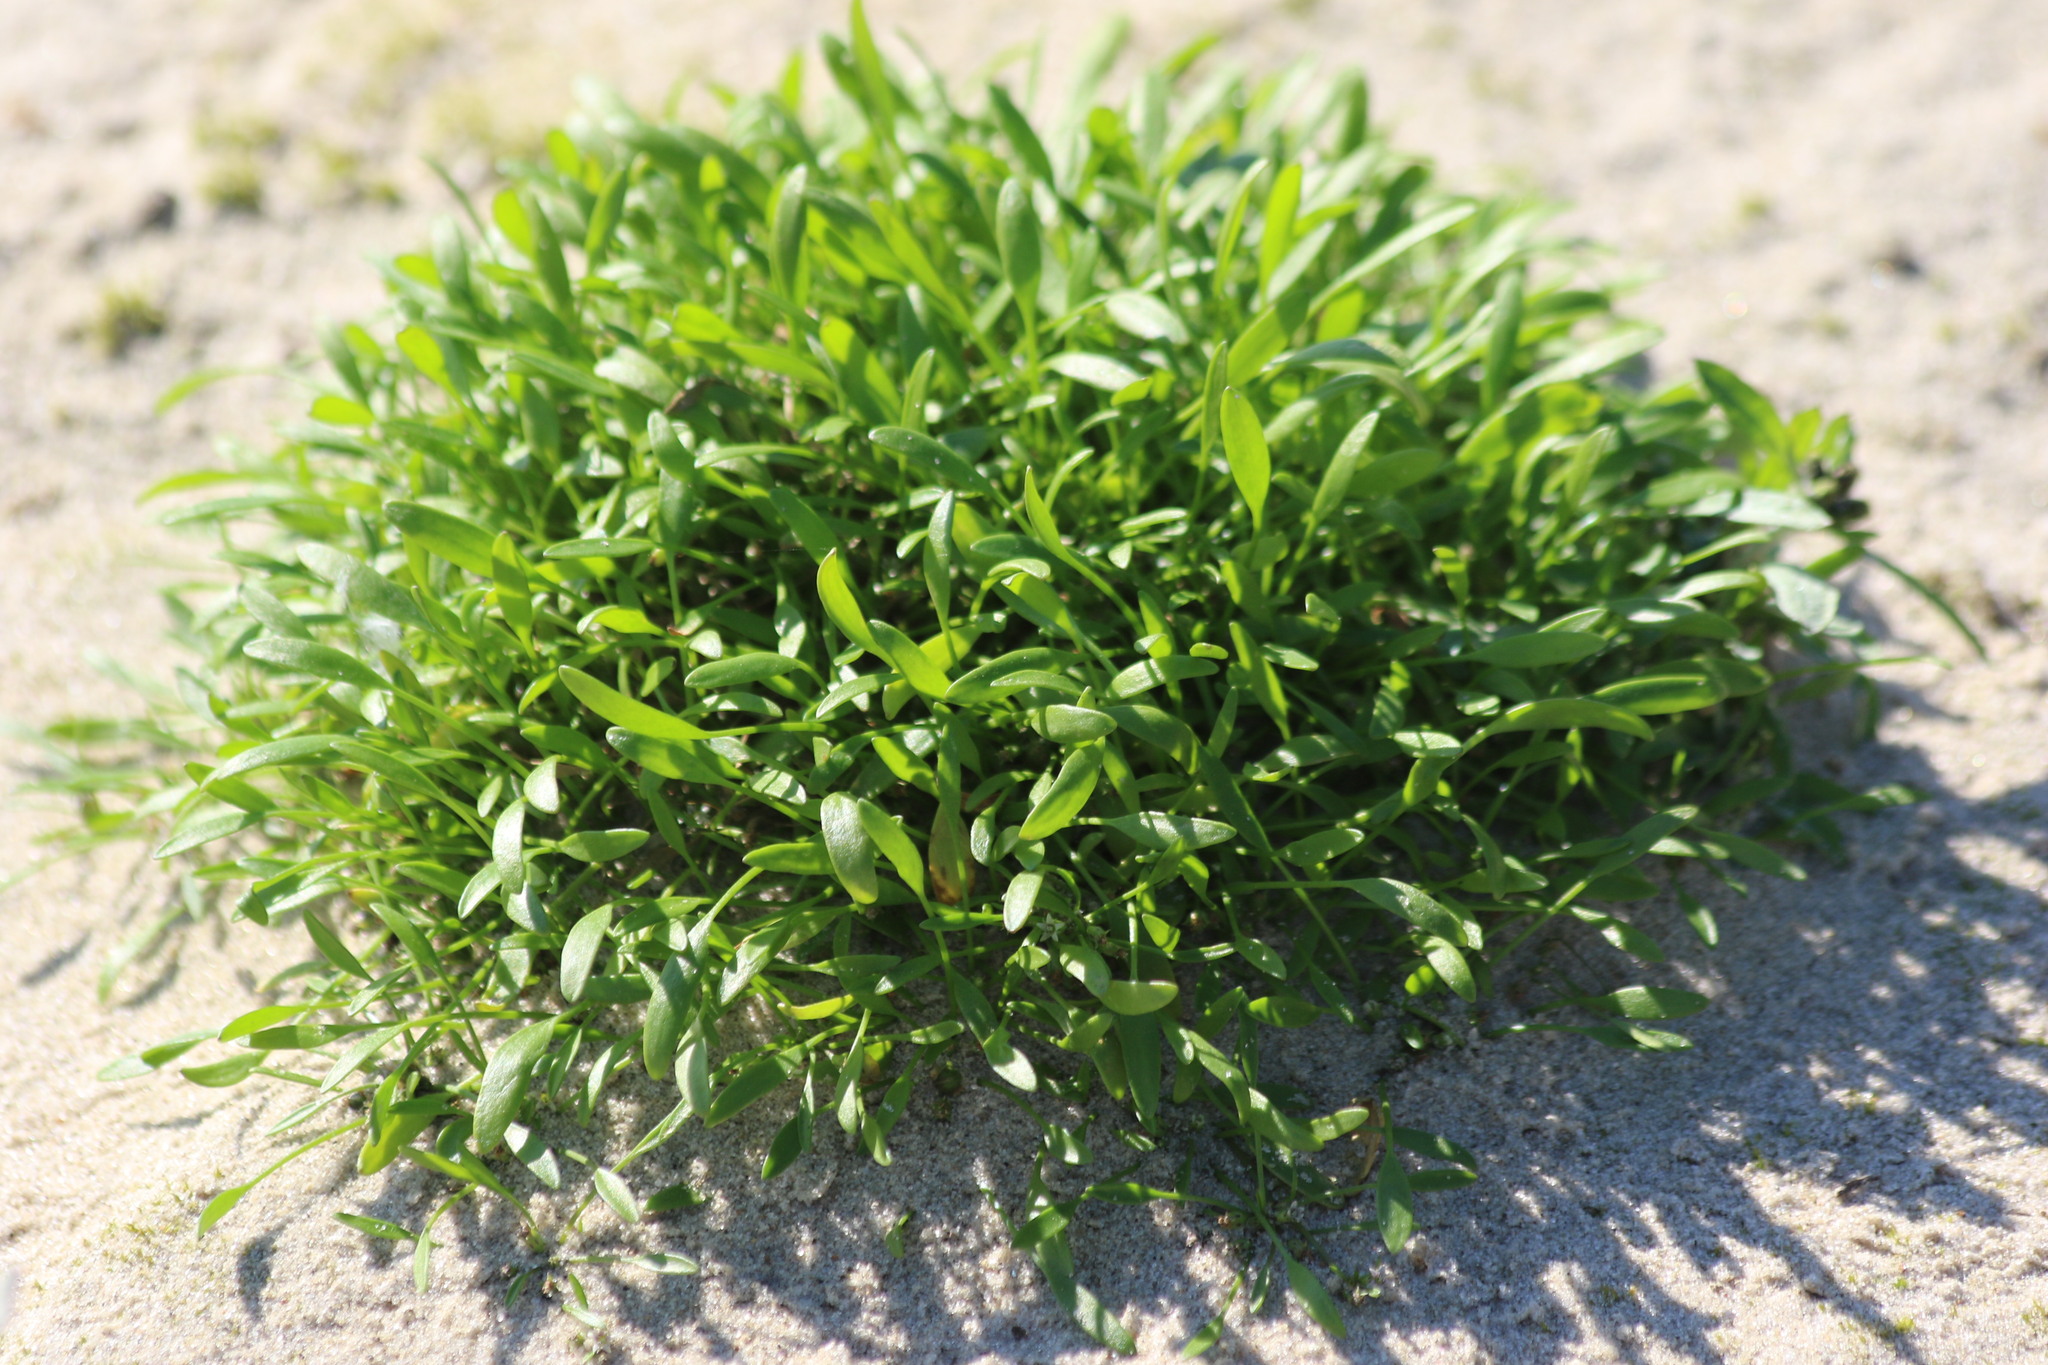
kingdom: Plantae
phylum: Tracheophyta
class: Magnoliopsida
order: Lamiales
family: Scrophulariaceae
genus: Limosella
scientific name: Limosella aquatica
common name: Mudwort
